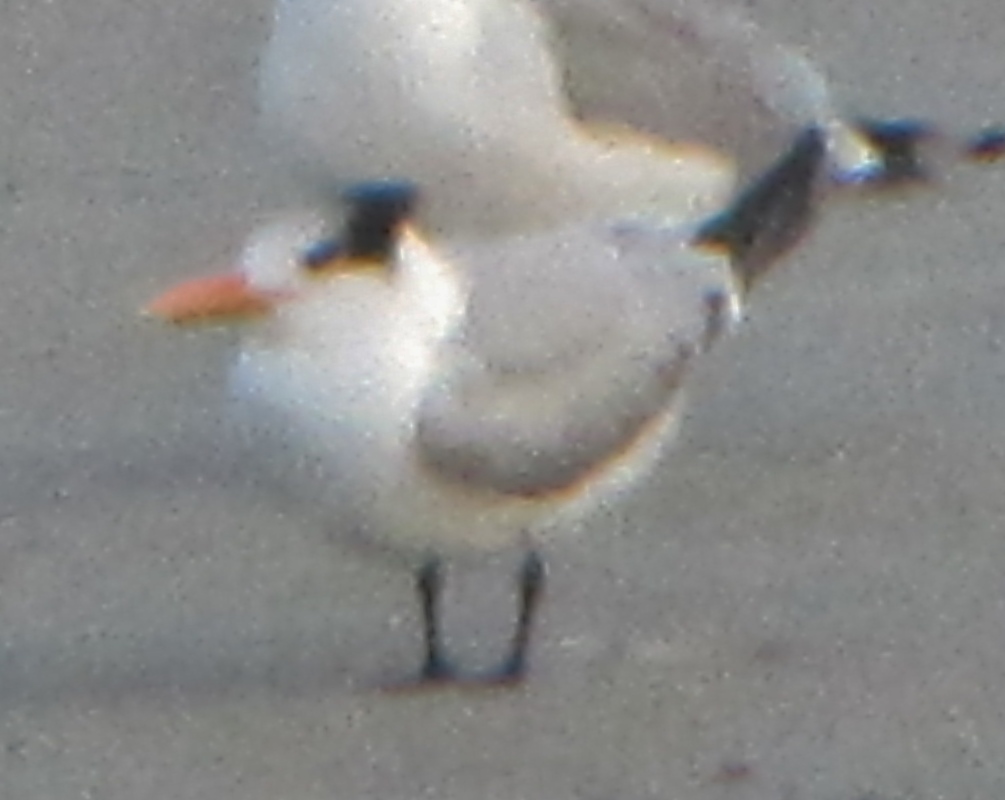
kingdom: Animalia
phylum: Chordata
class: Aves
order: Charadriiformes
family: Laridae
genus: Thalasseus
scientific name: Thalasseus maximus
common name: Royal tern
